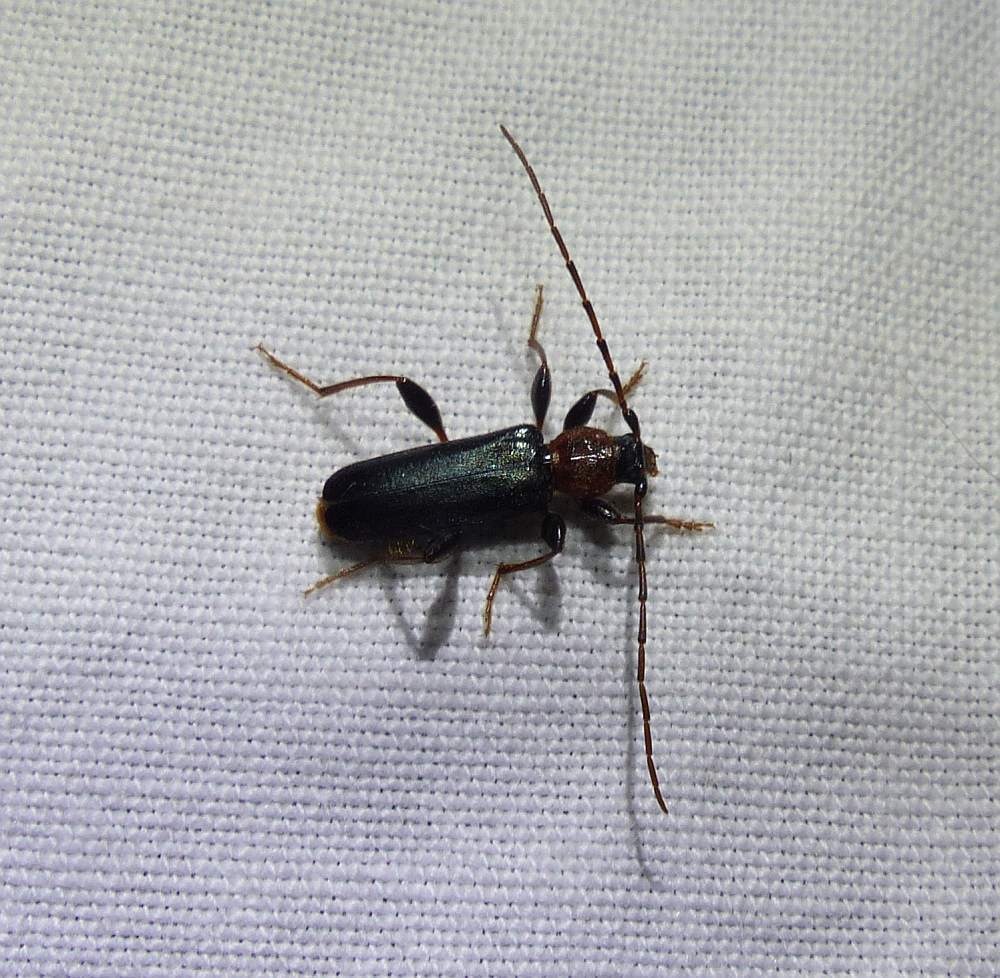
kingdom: Animalia
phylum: Arthropoda
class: Insecta
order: Coleoptera
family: Cerambycidae
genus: Phymatodes
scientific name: Phymatodes testaceus
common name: Long-horned beetle
